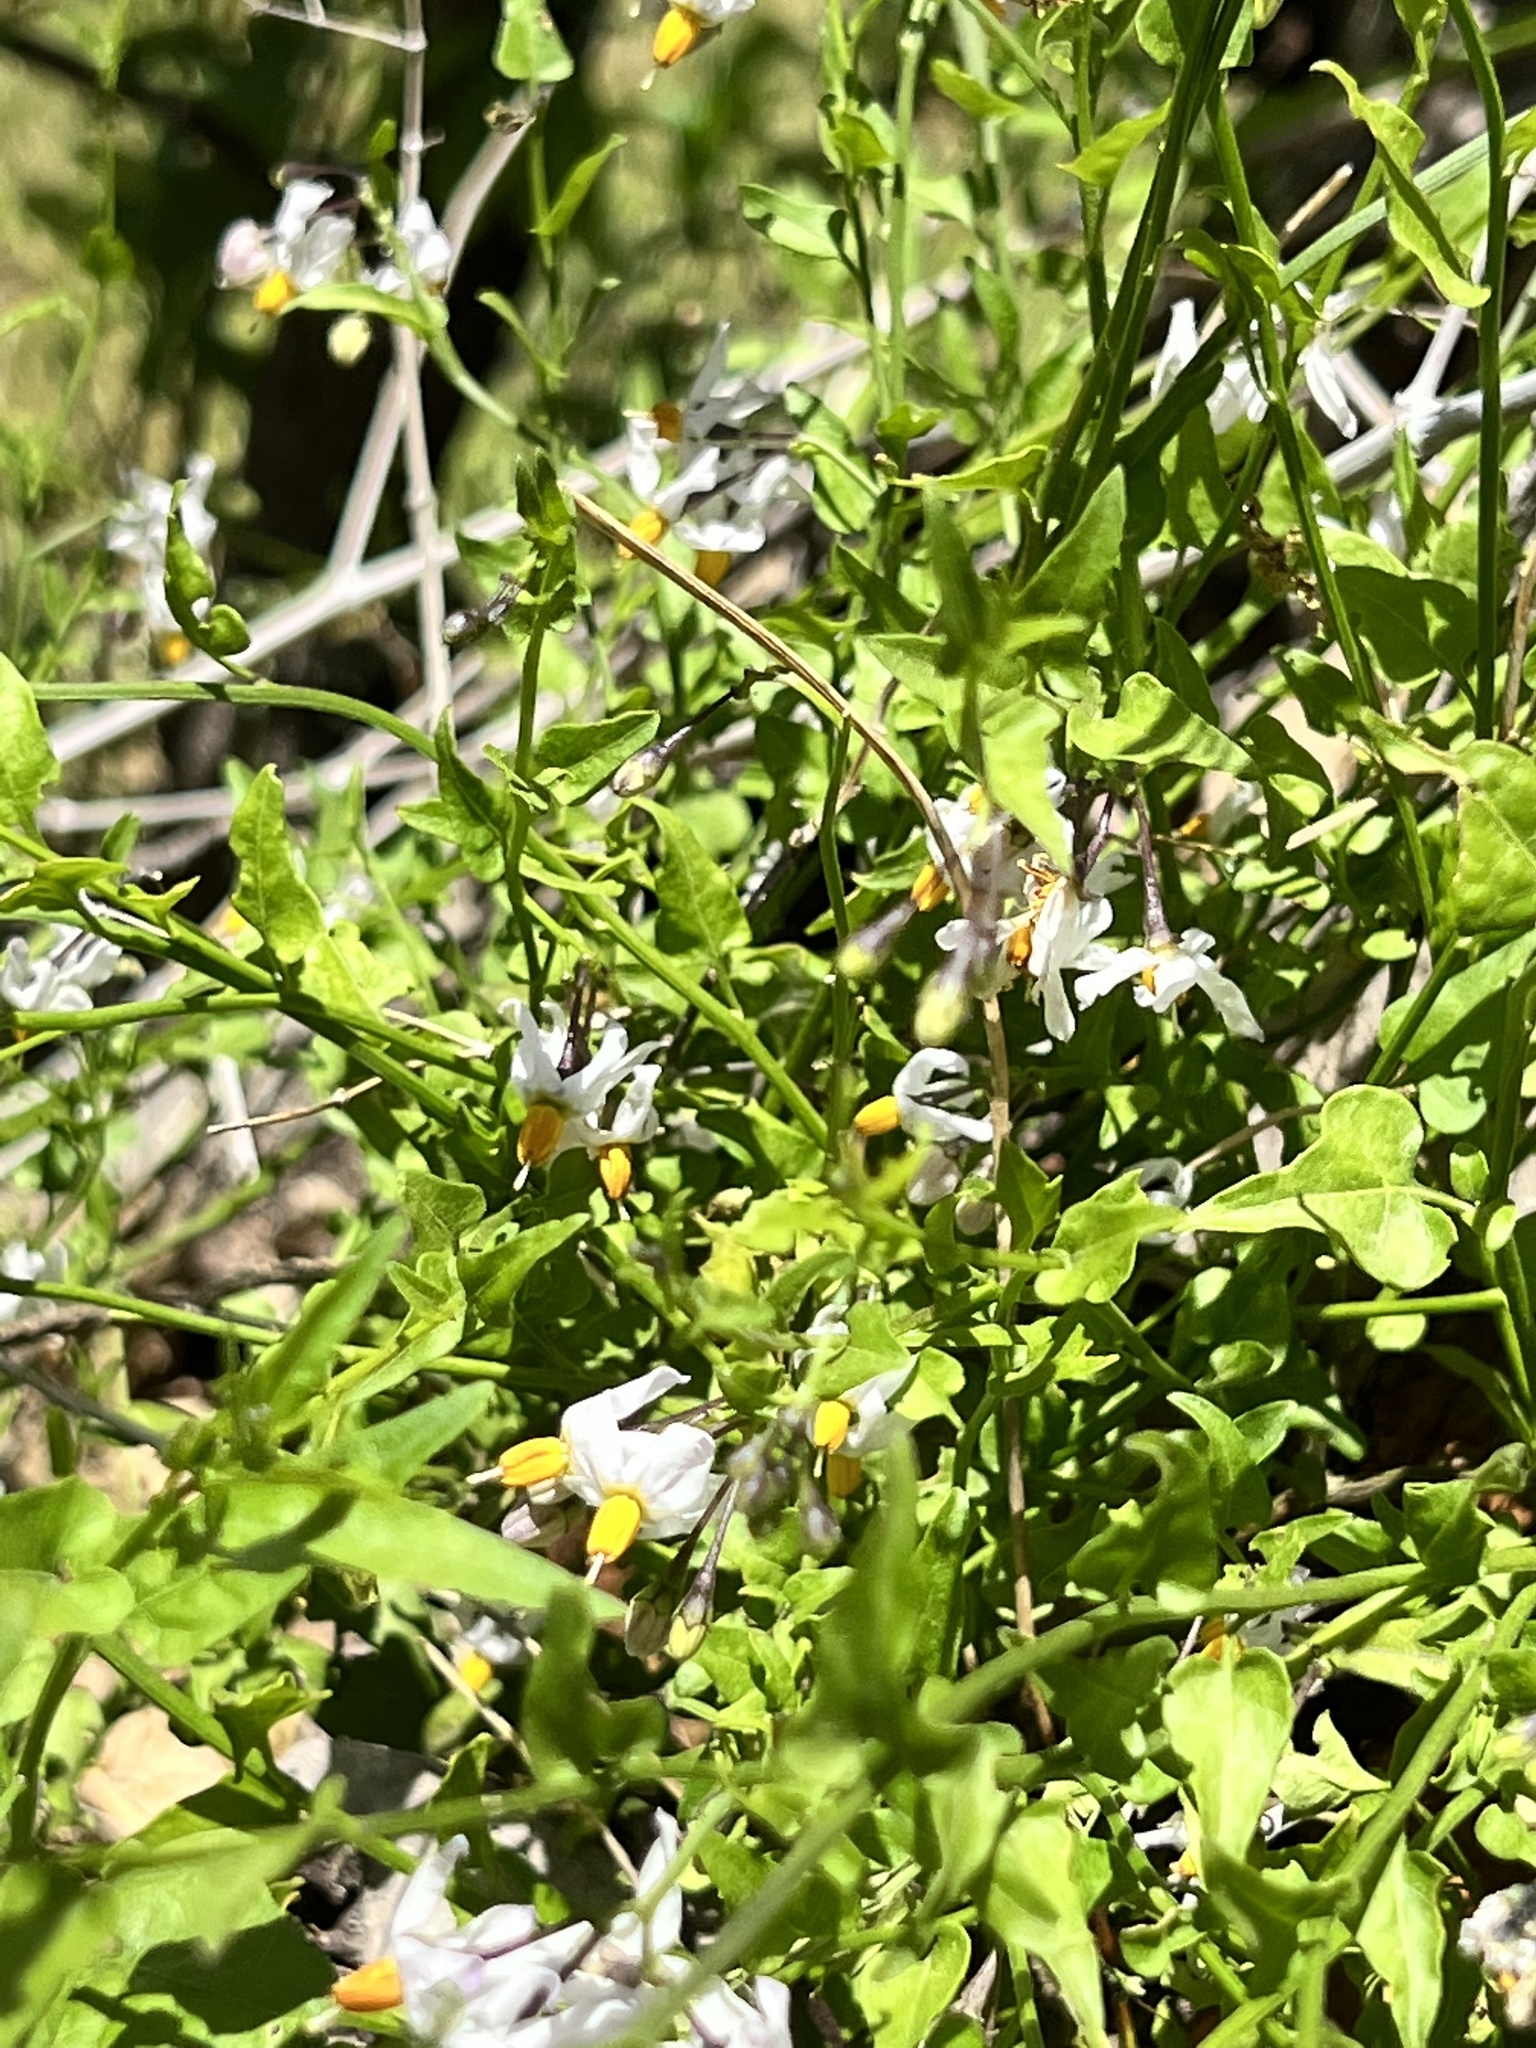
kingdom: Plantae
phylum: Tracheophyta
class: Magnoliopsida
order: Solanales
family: Solanaceae
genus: Solanum
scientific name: Solanum triquetrum
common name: Texas nightshade
